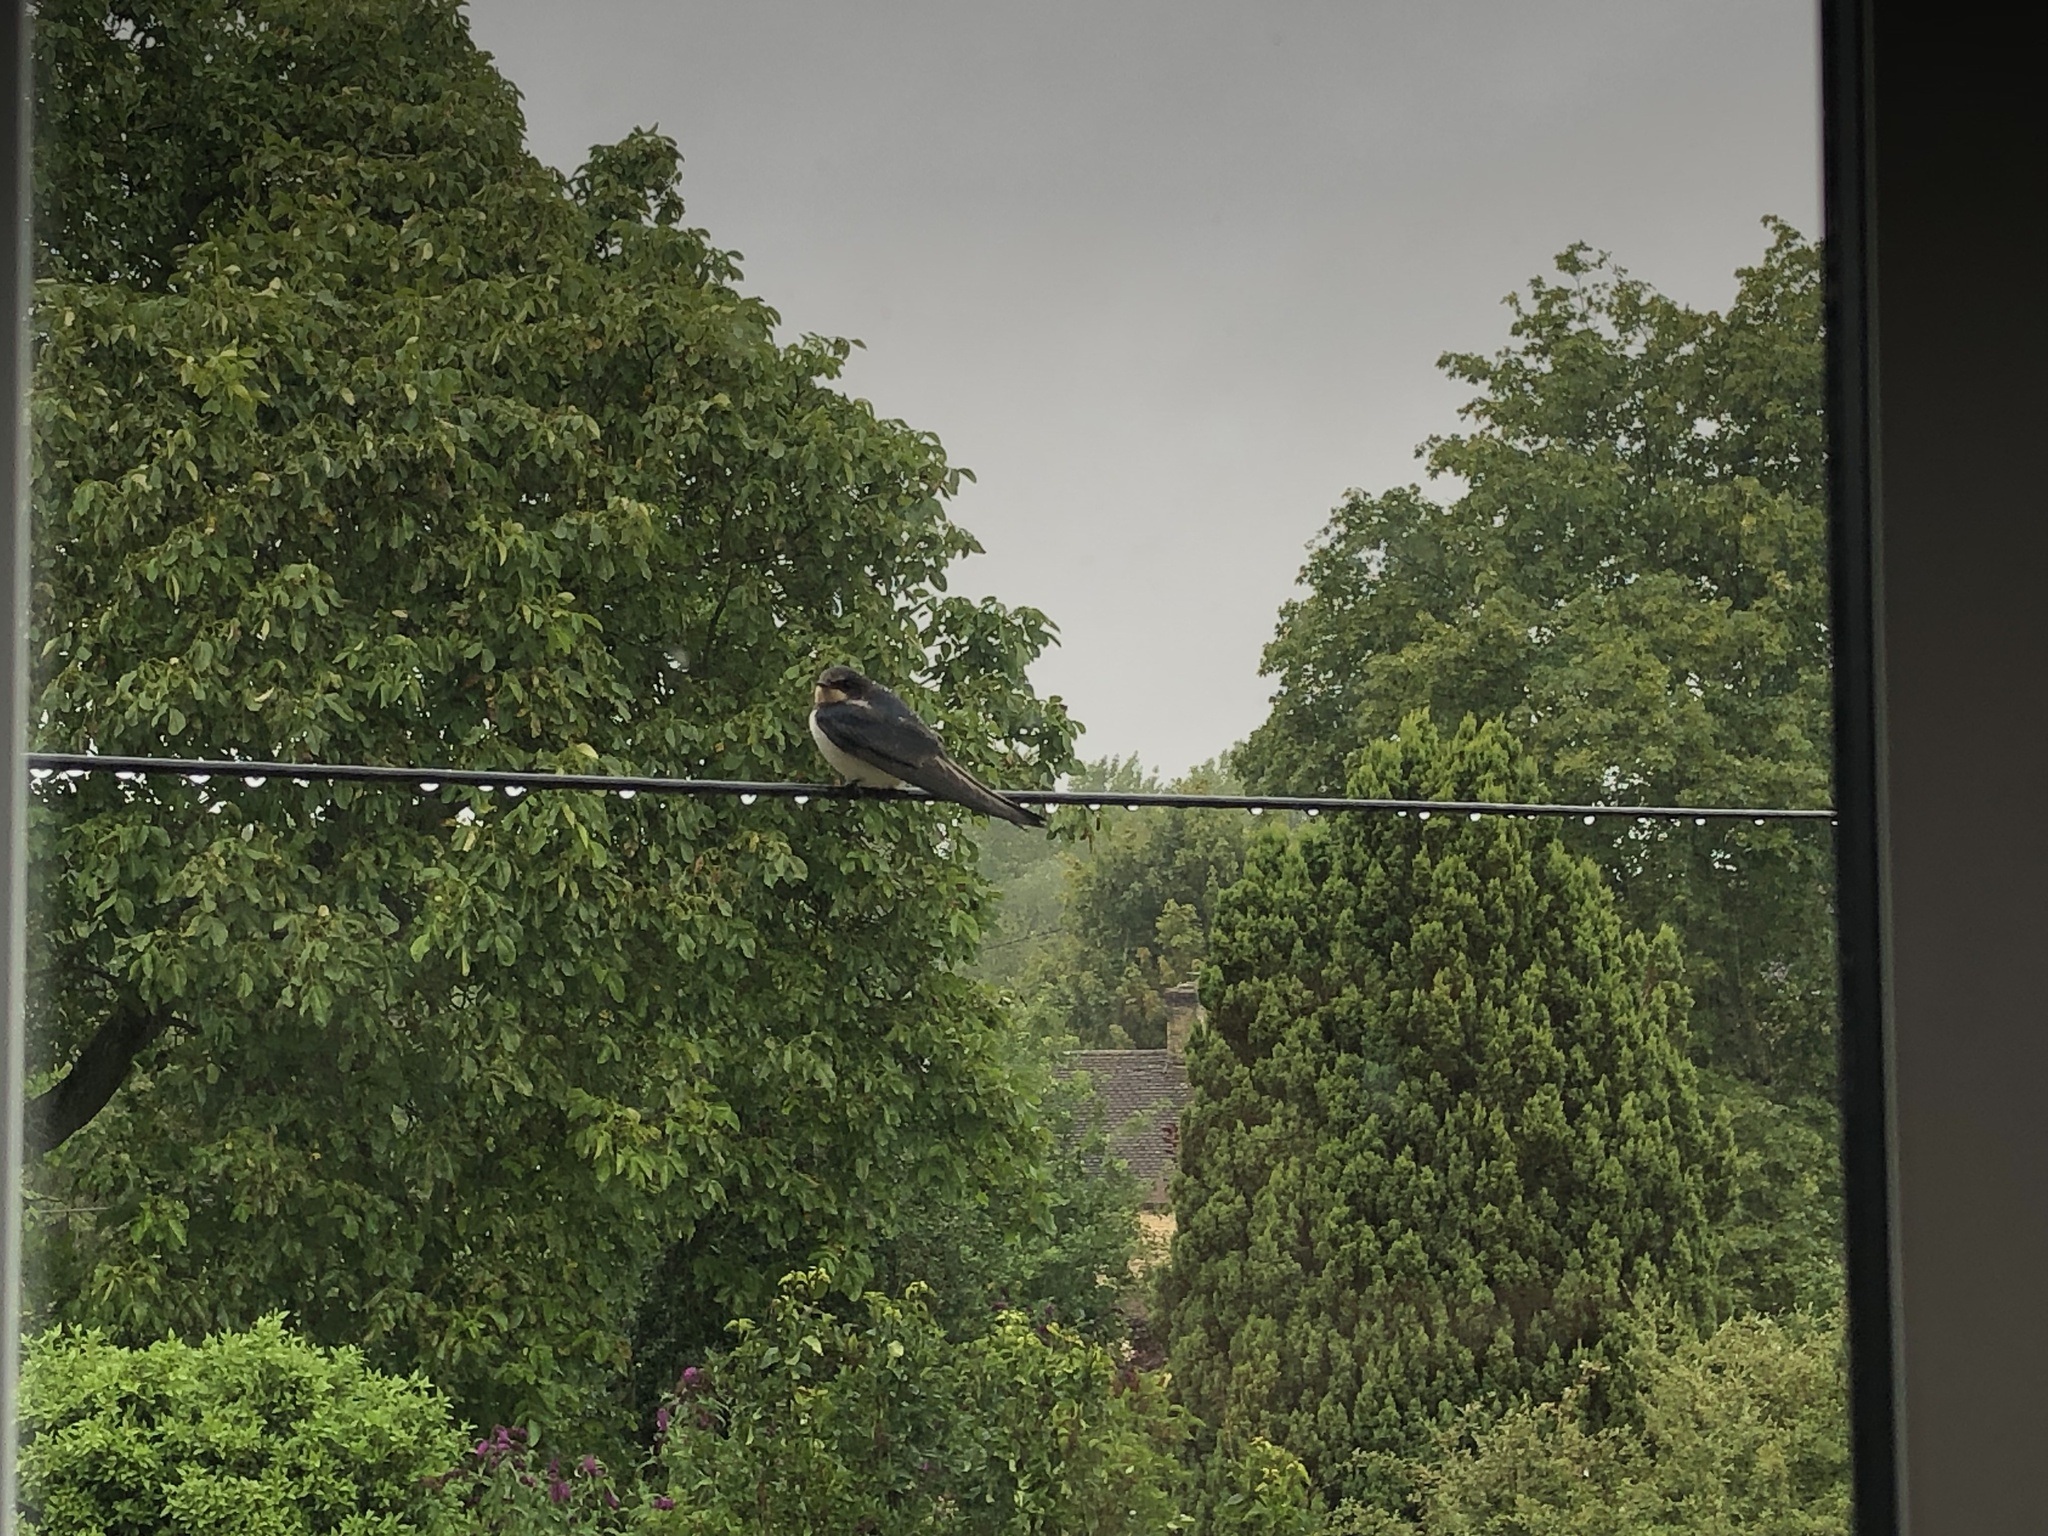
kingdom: Animalia
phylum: Chordata
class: Aves
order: Passeriformes
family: Hirundinidae
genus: Hirundo
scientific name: Hirundo rustica
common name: Barn swallow
